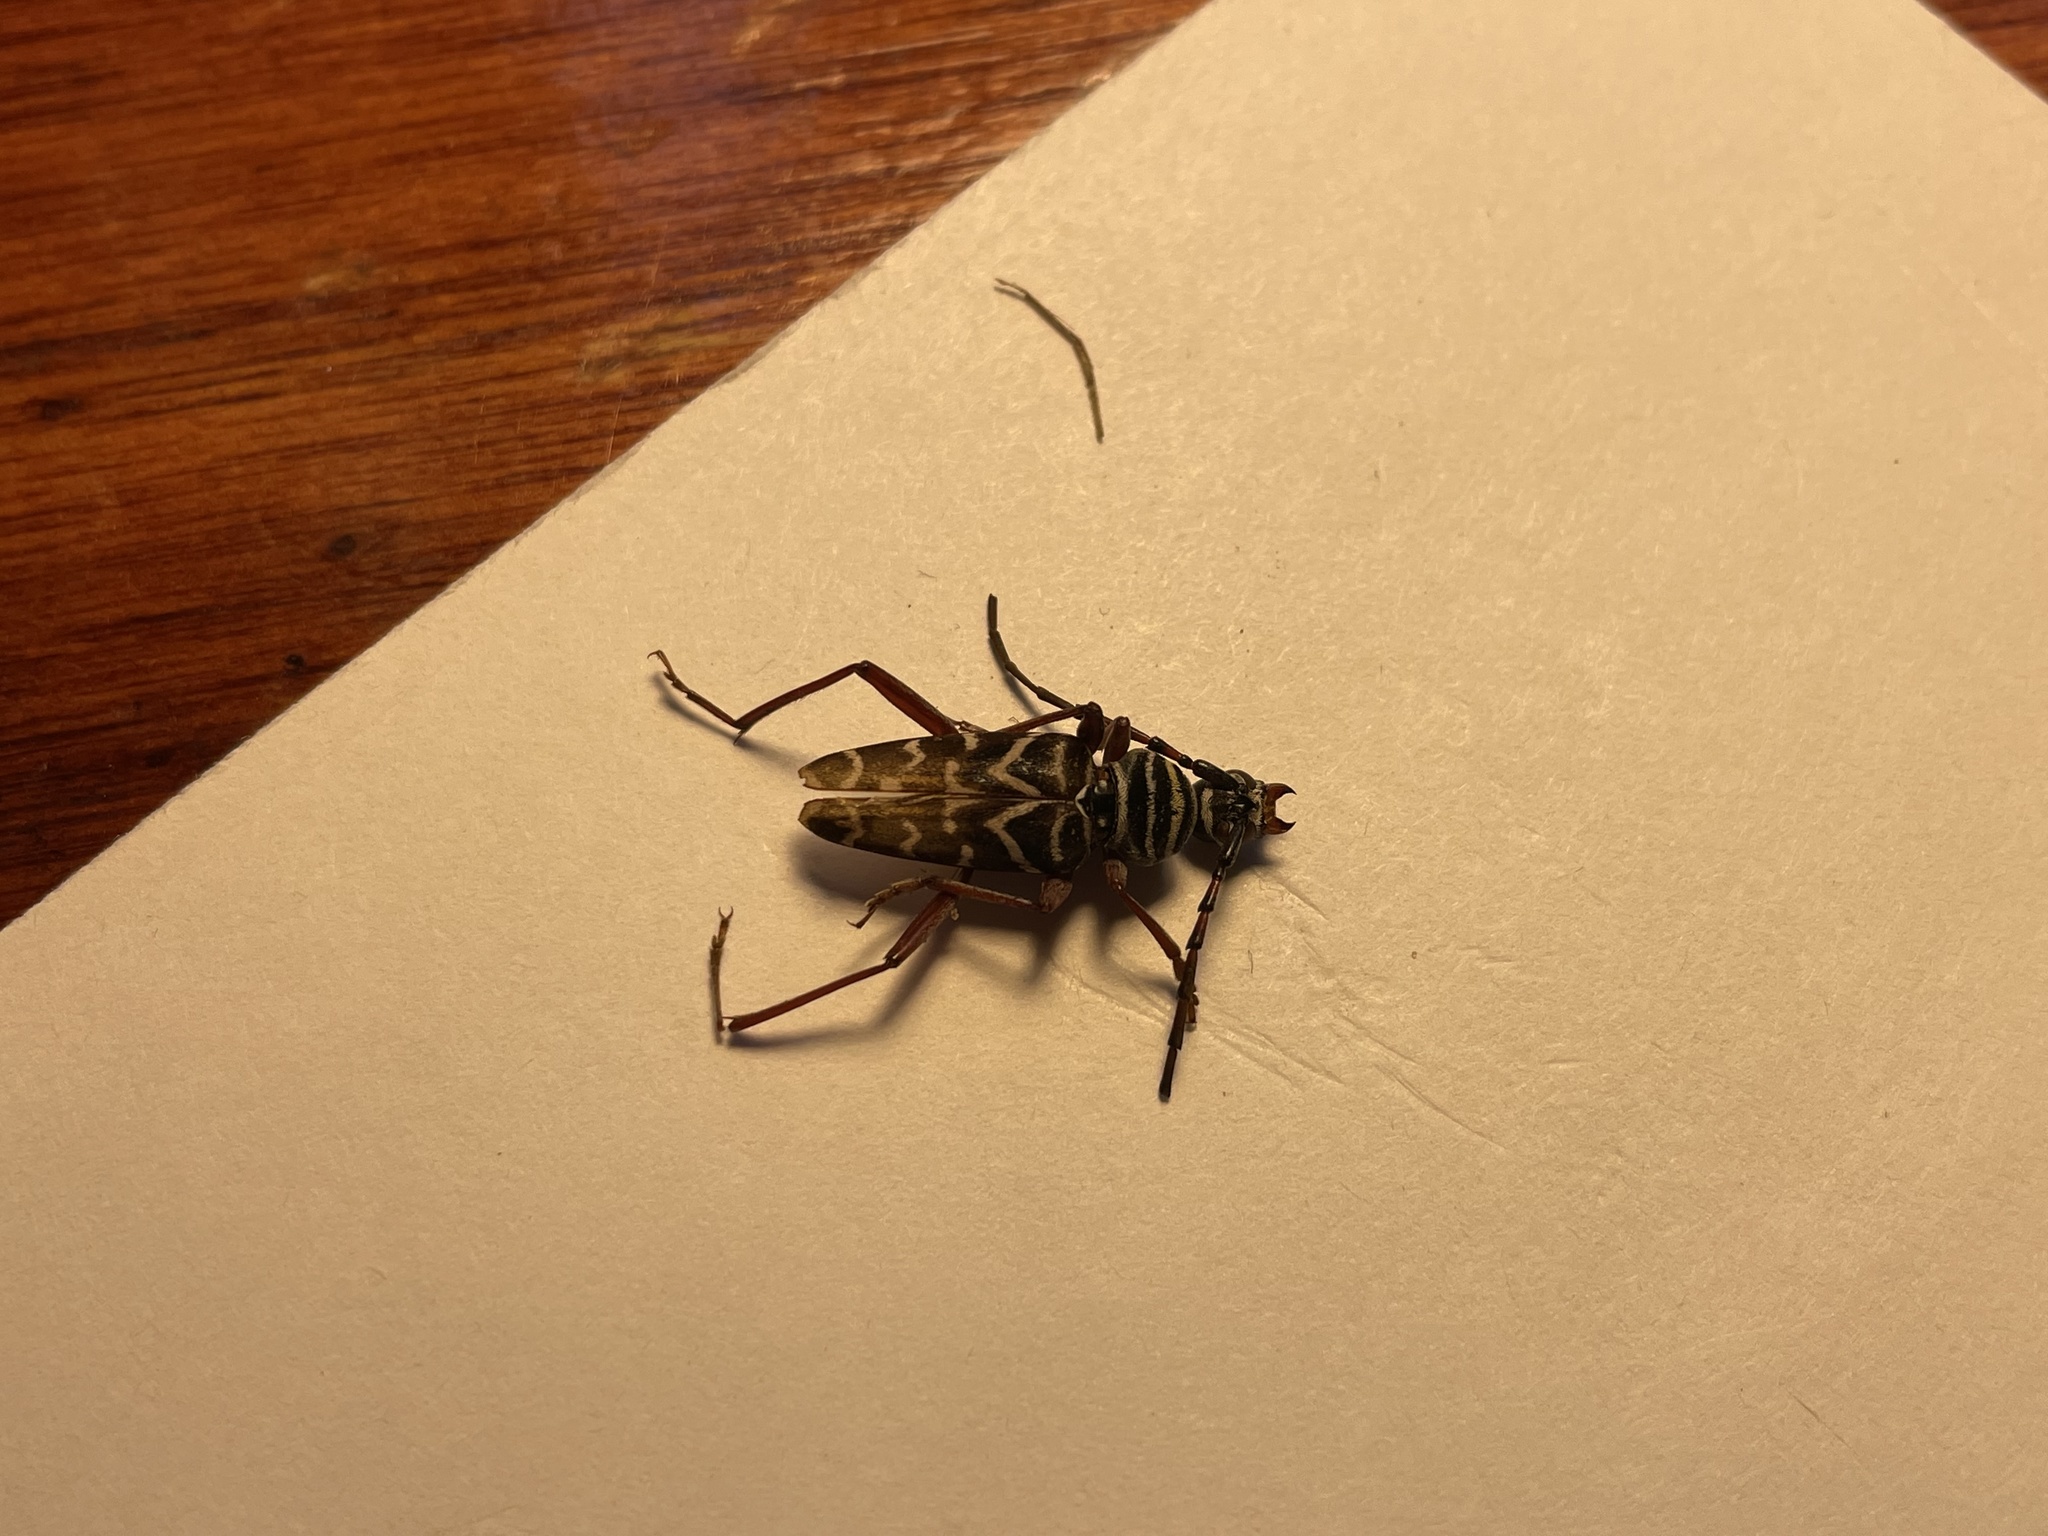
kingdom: Animalia
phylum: Arthropoda
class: Insecta
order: Coleoptera
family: Cerambycidae
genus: Megacyllene
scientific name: Megacyllene caryae
